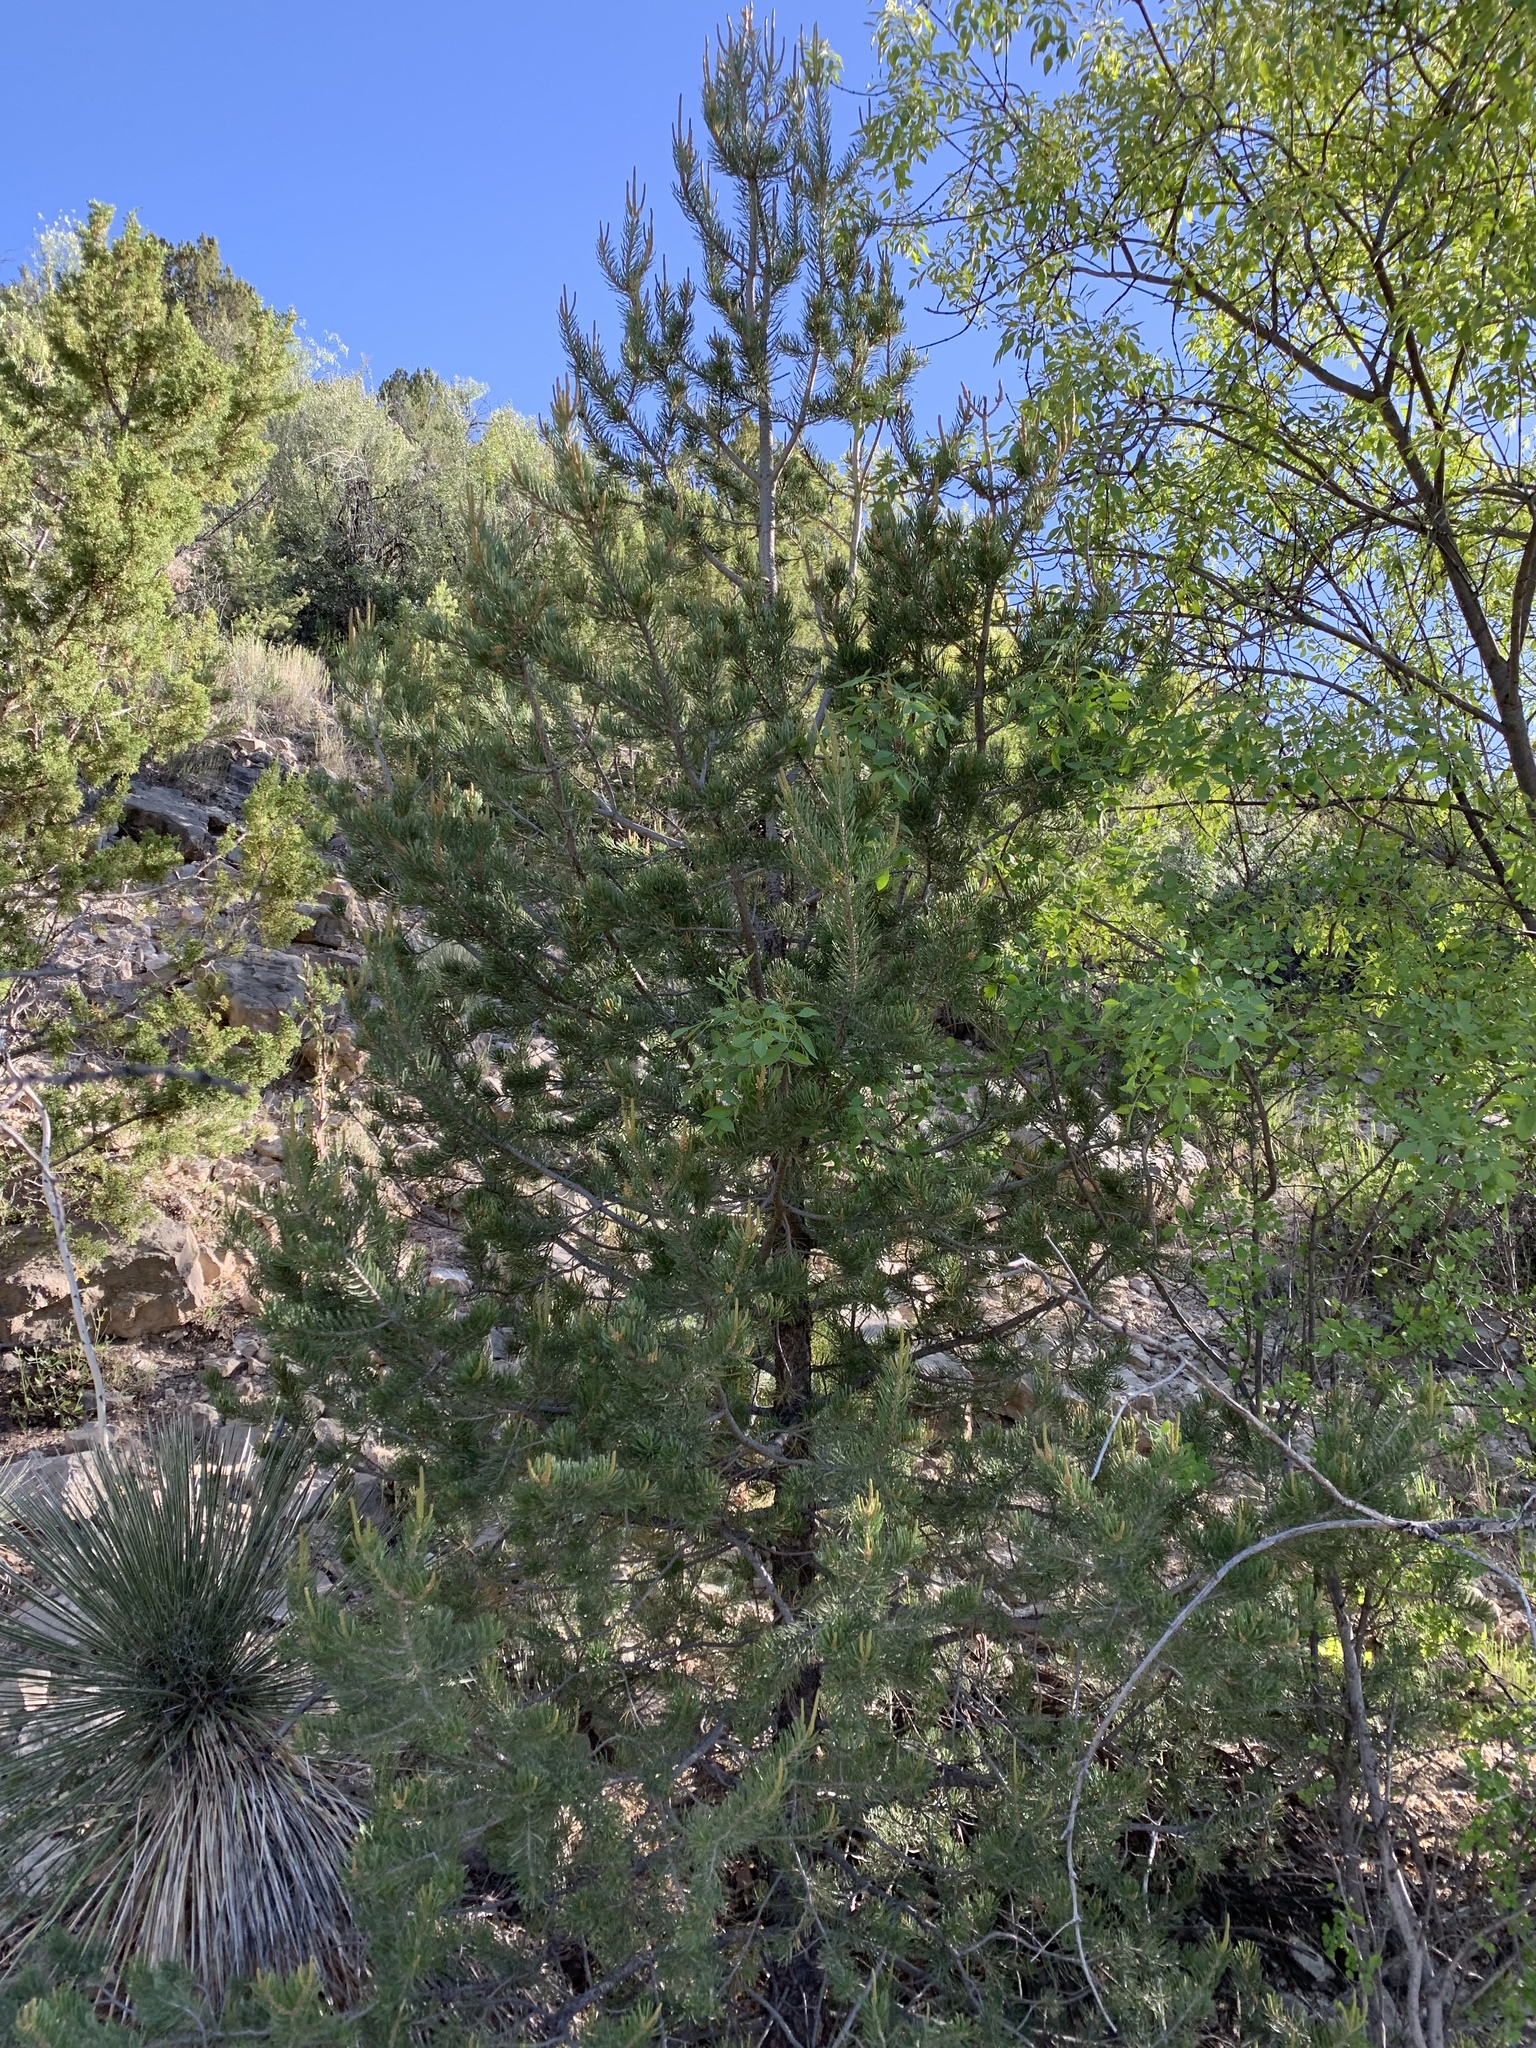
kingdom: Plantae
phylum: Tracheophyta
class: Pinopsida
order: Pinales
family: Pinaceae
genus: Pinus
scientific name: Pinus edulis
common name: Colorado pinyon
